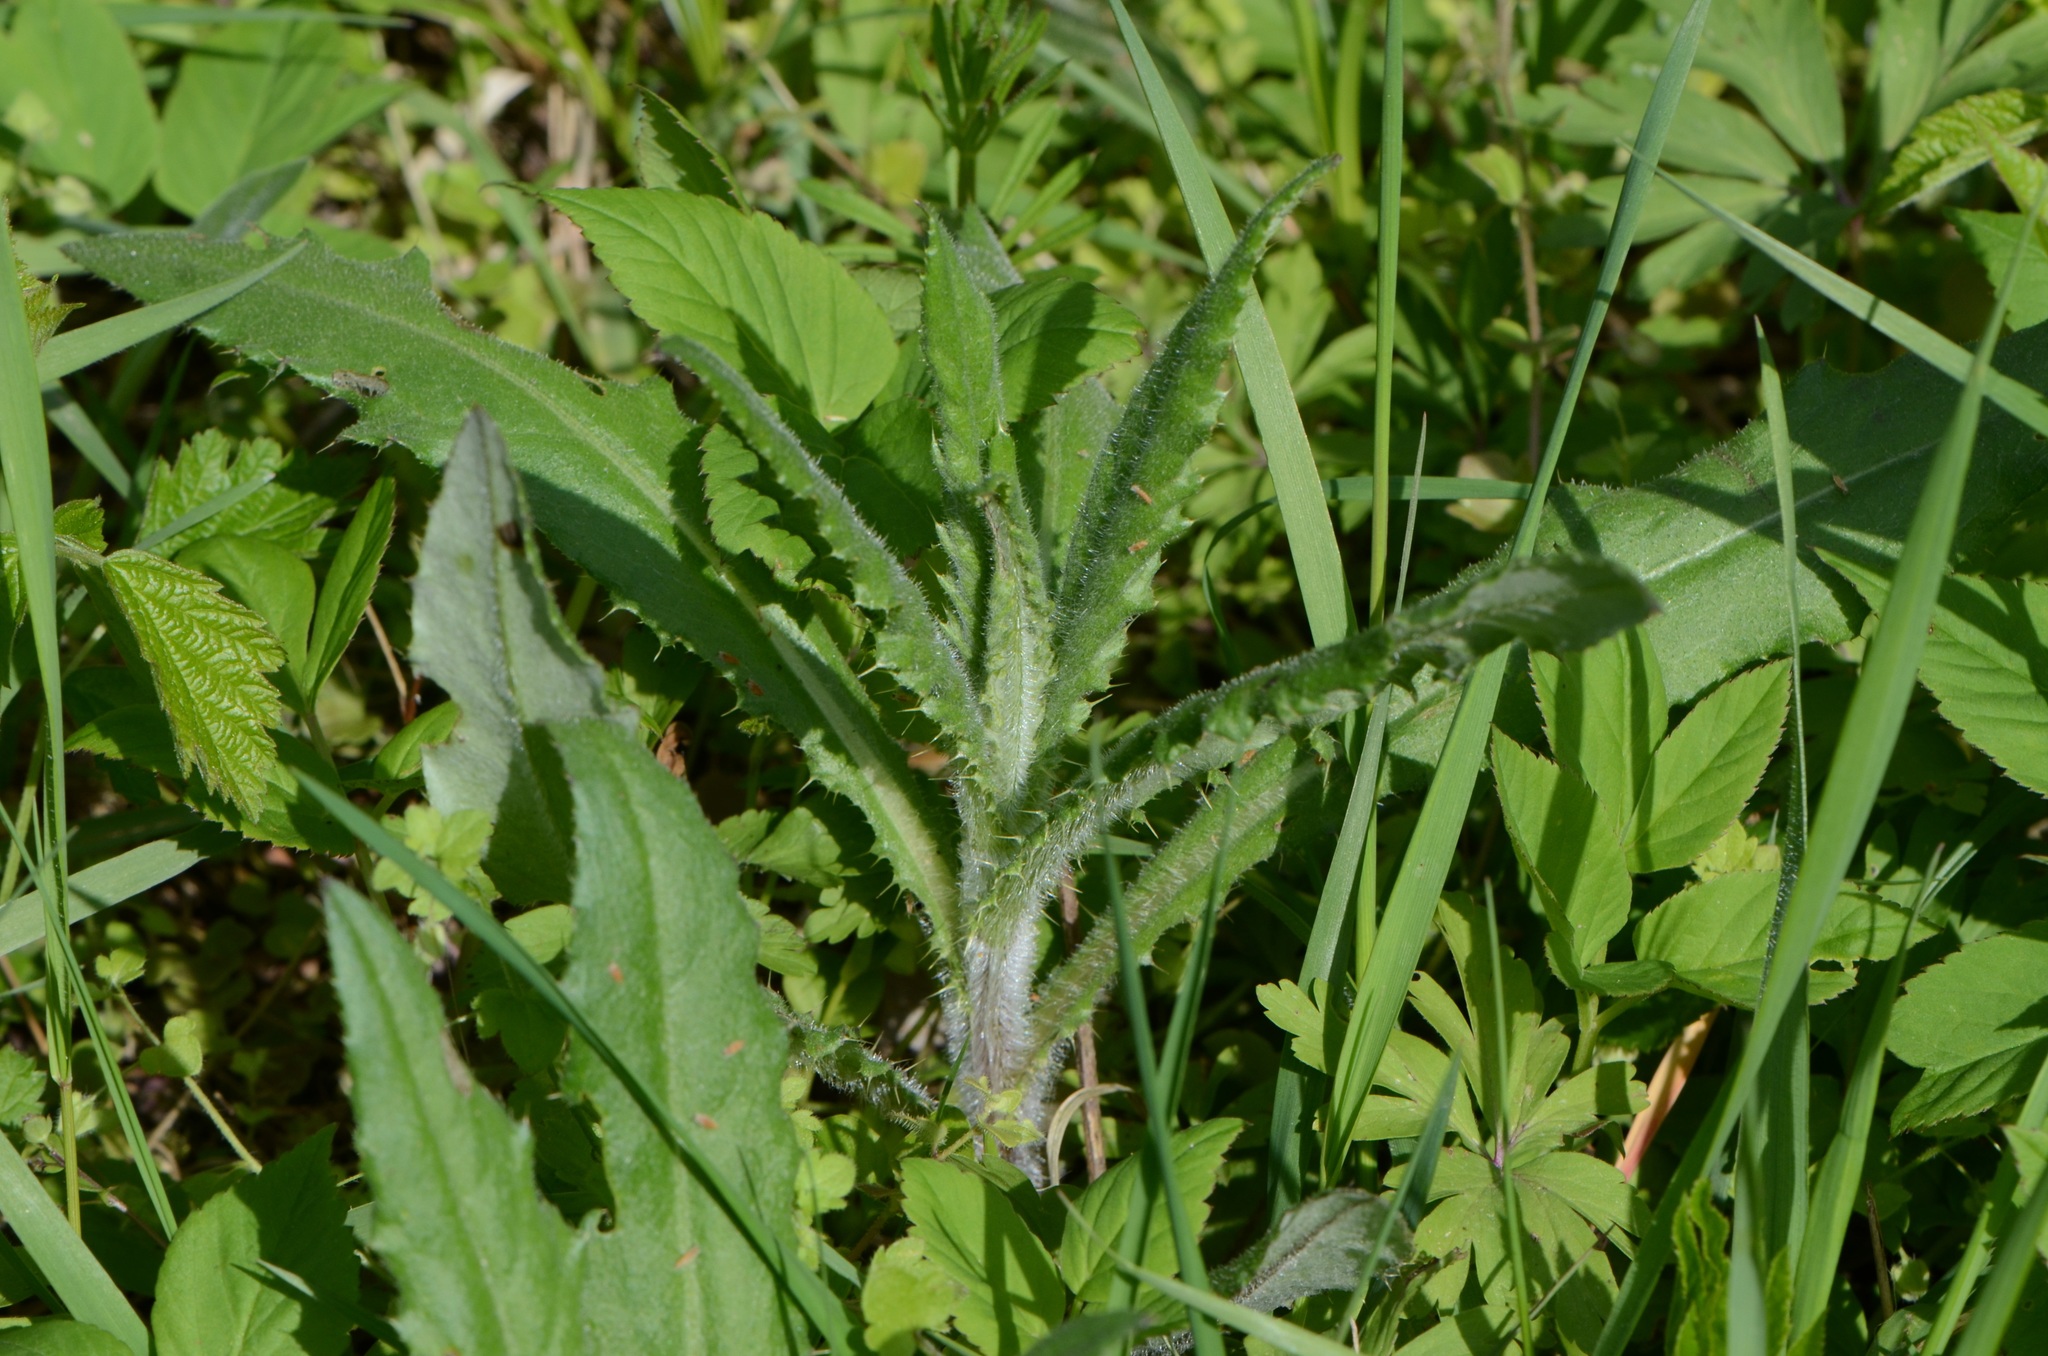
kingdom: Plantae
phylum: Tracheophyta
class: Magnoliopsida
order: Asterales
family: Asteraceae
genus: Cirsium
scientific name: Cirsium arvense
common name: Creeping thistle
